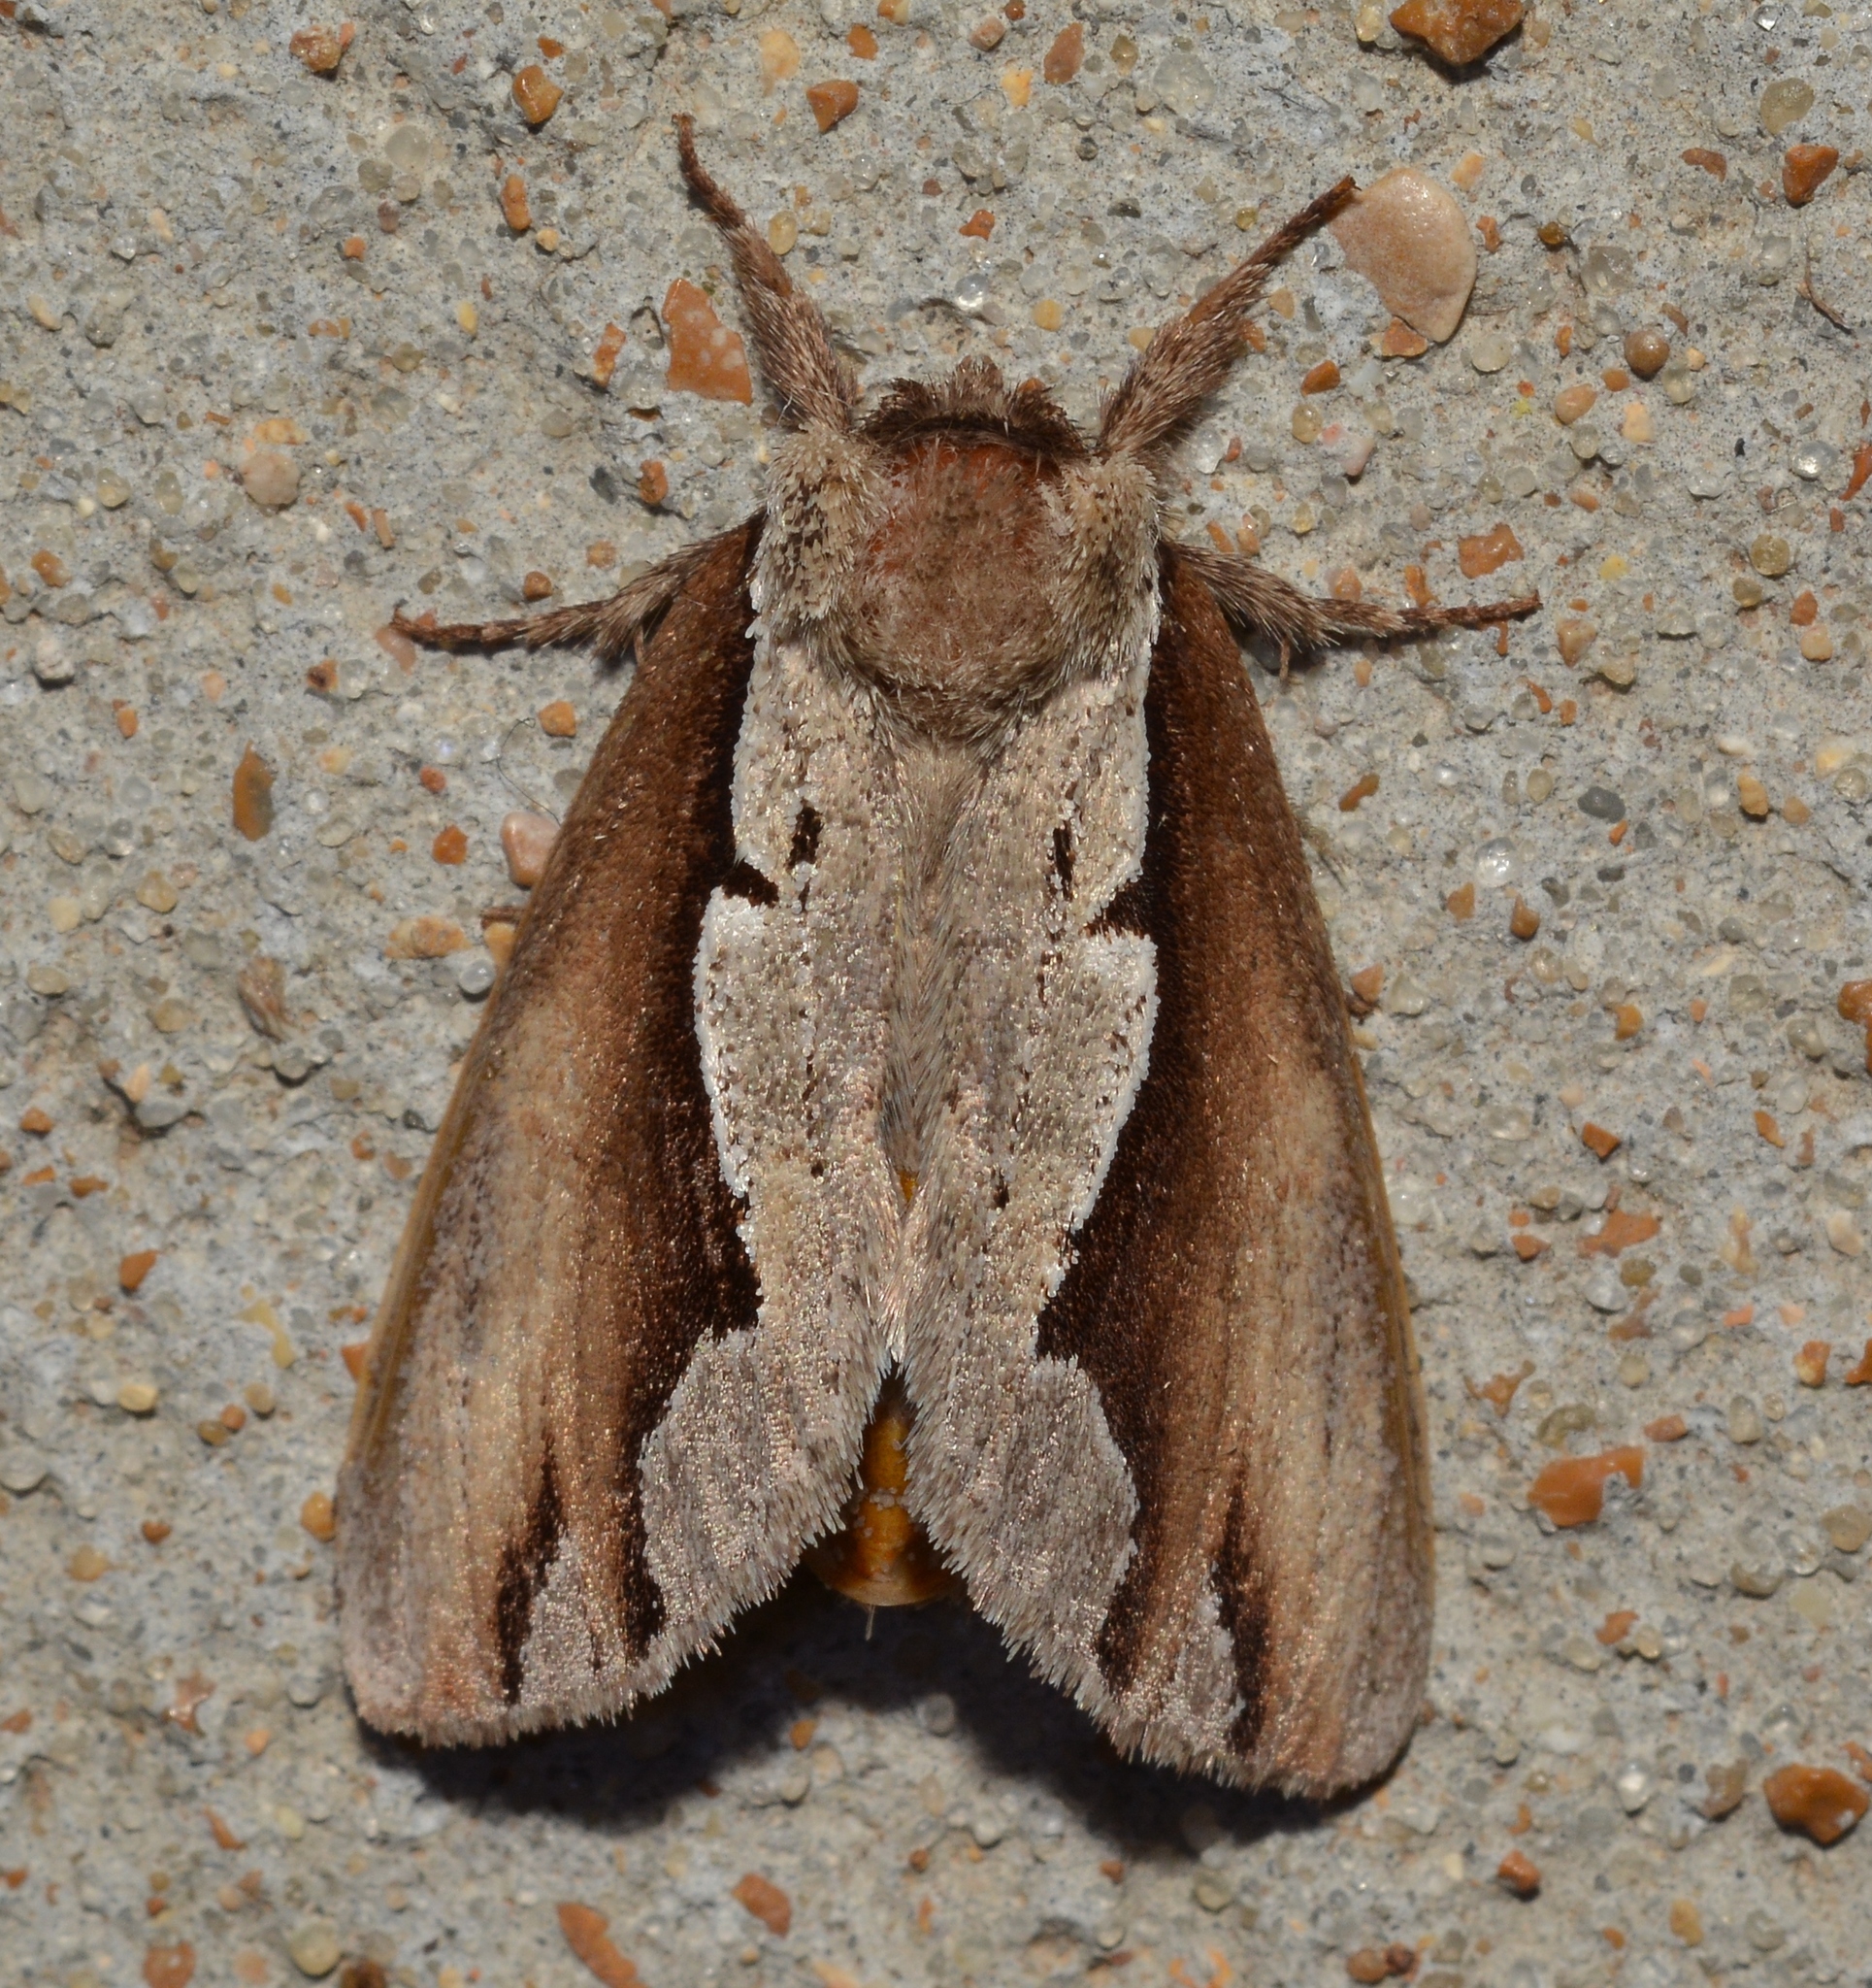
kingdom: Animalia
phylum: Arthropoda
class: Insecta
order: Lepidoptera
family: Notodontidae
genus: Nerice
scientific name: Nerice bidentata
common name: Double-toothed prominent
